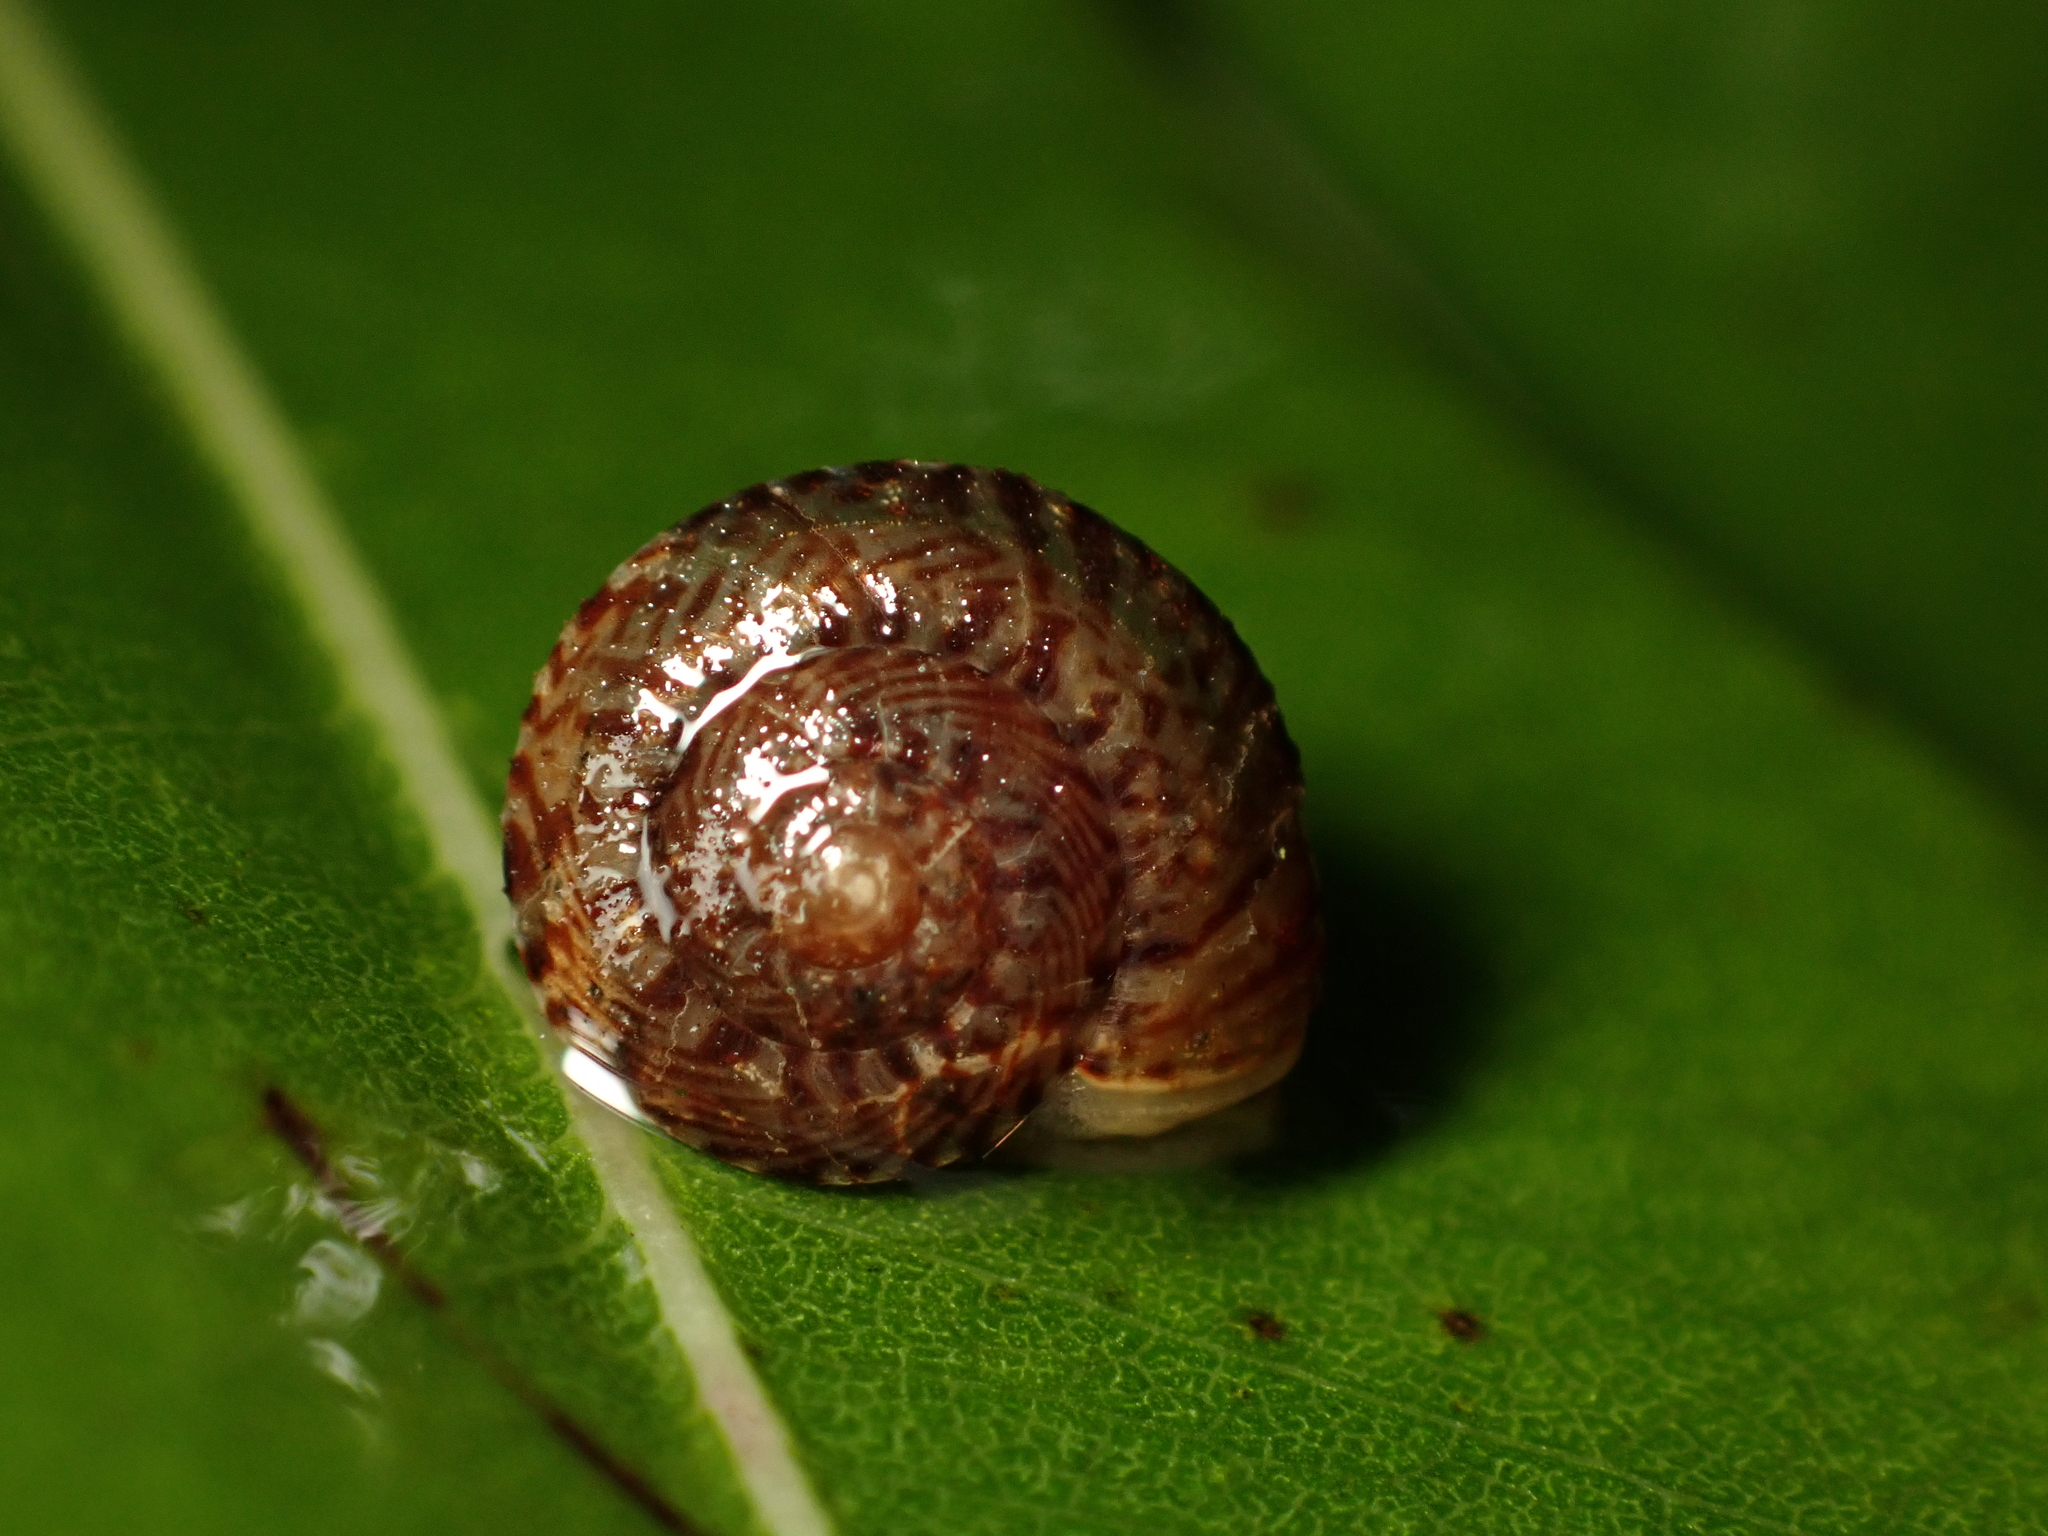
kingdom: Animalia
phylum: Mollusca
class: Gastropoda
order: Stylommatophora
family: Charopidae
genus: Thalassohelix
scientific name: Thalassohelix zelandiae
